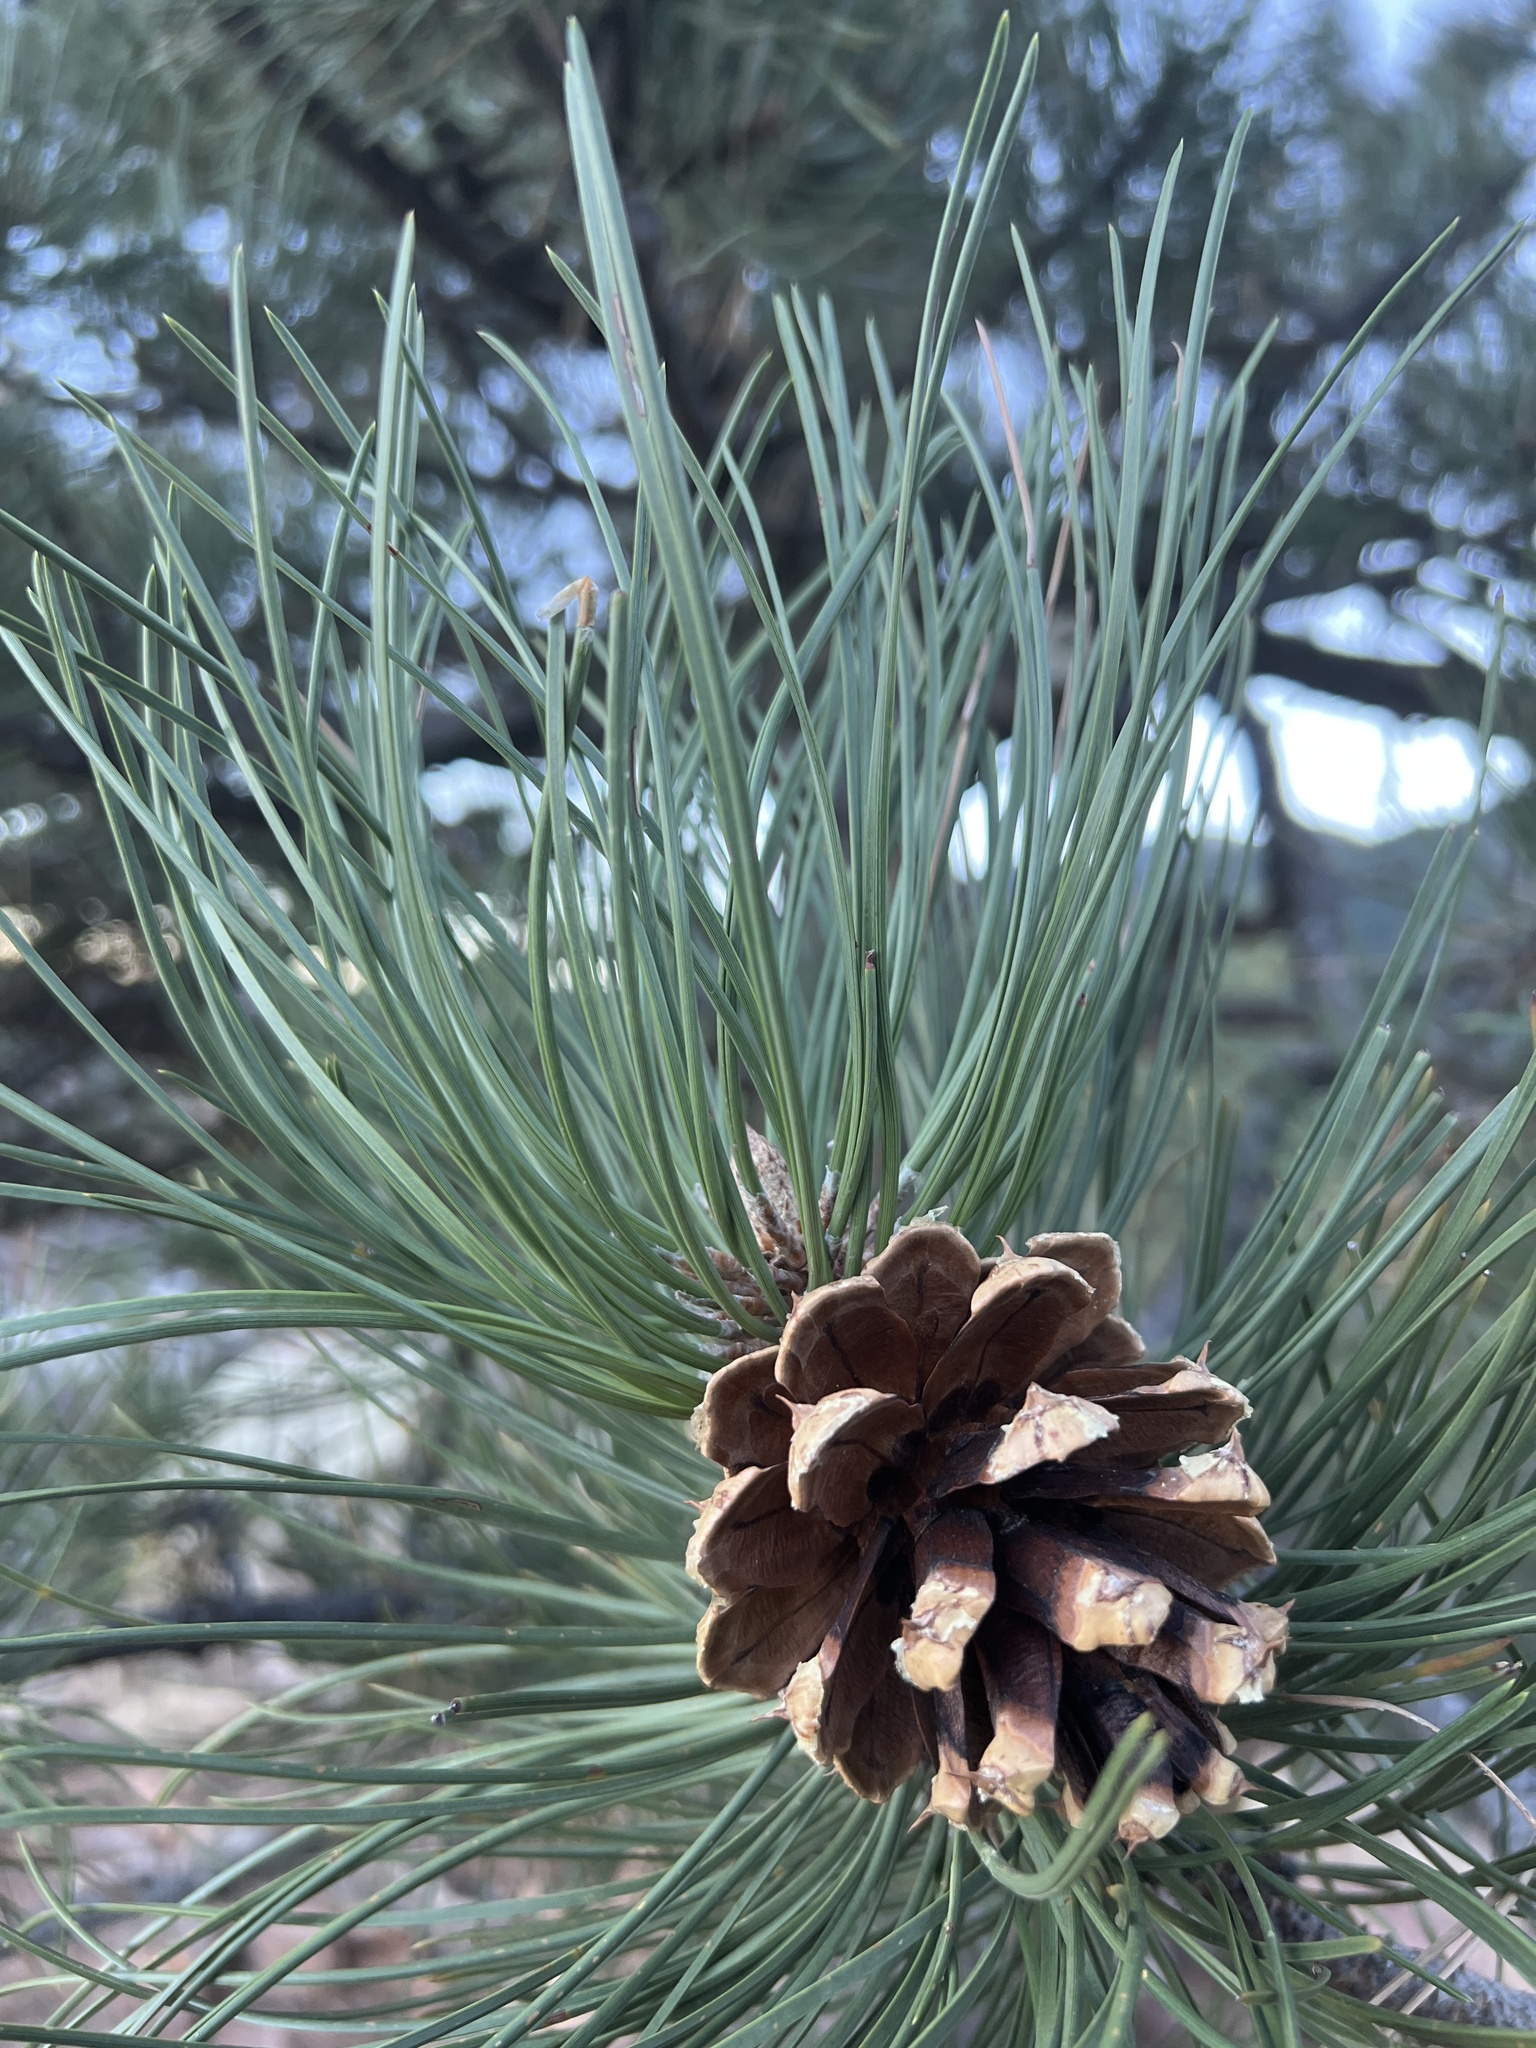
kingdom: Plantae
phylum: Tracheophyta
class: Pinopsida
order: Pinales
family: Pinaceae
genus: Pinus
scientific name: Pinus ponderosa
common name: Western yellow-pine
